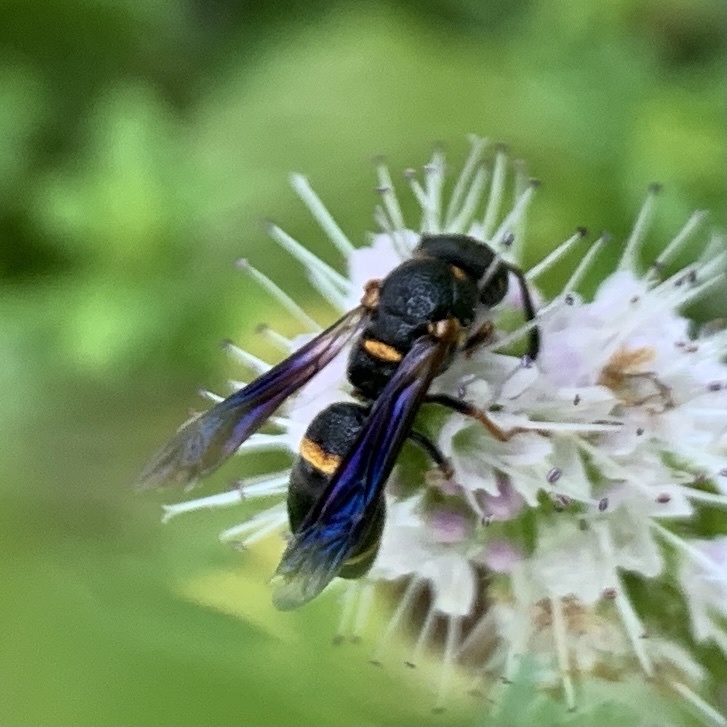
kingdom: Animalia
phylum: Arthropoda
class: Insecta
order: Hymenoptera
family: Eumenidae
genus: Parancistrocerus
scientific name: Parancistrocerus
